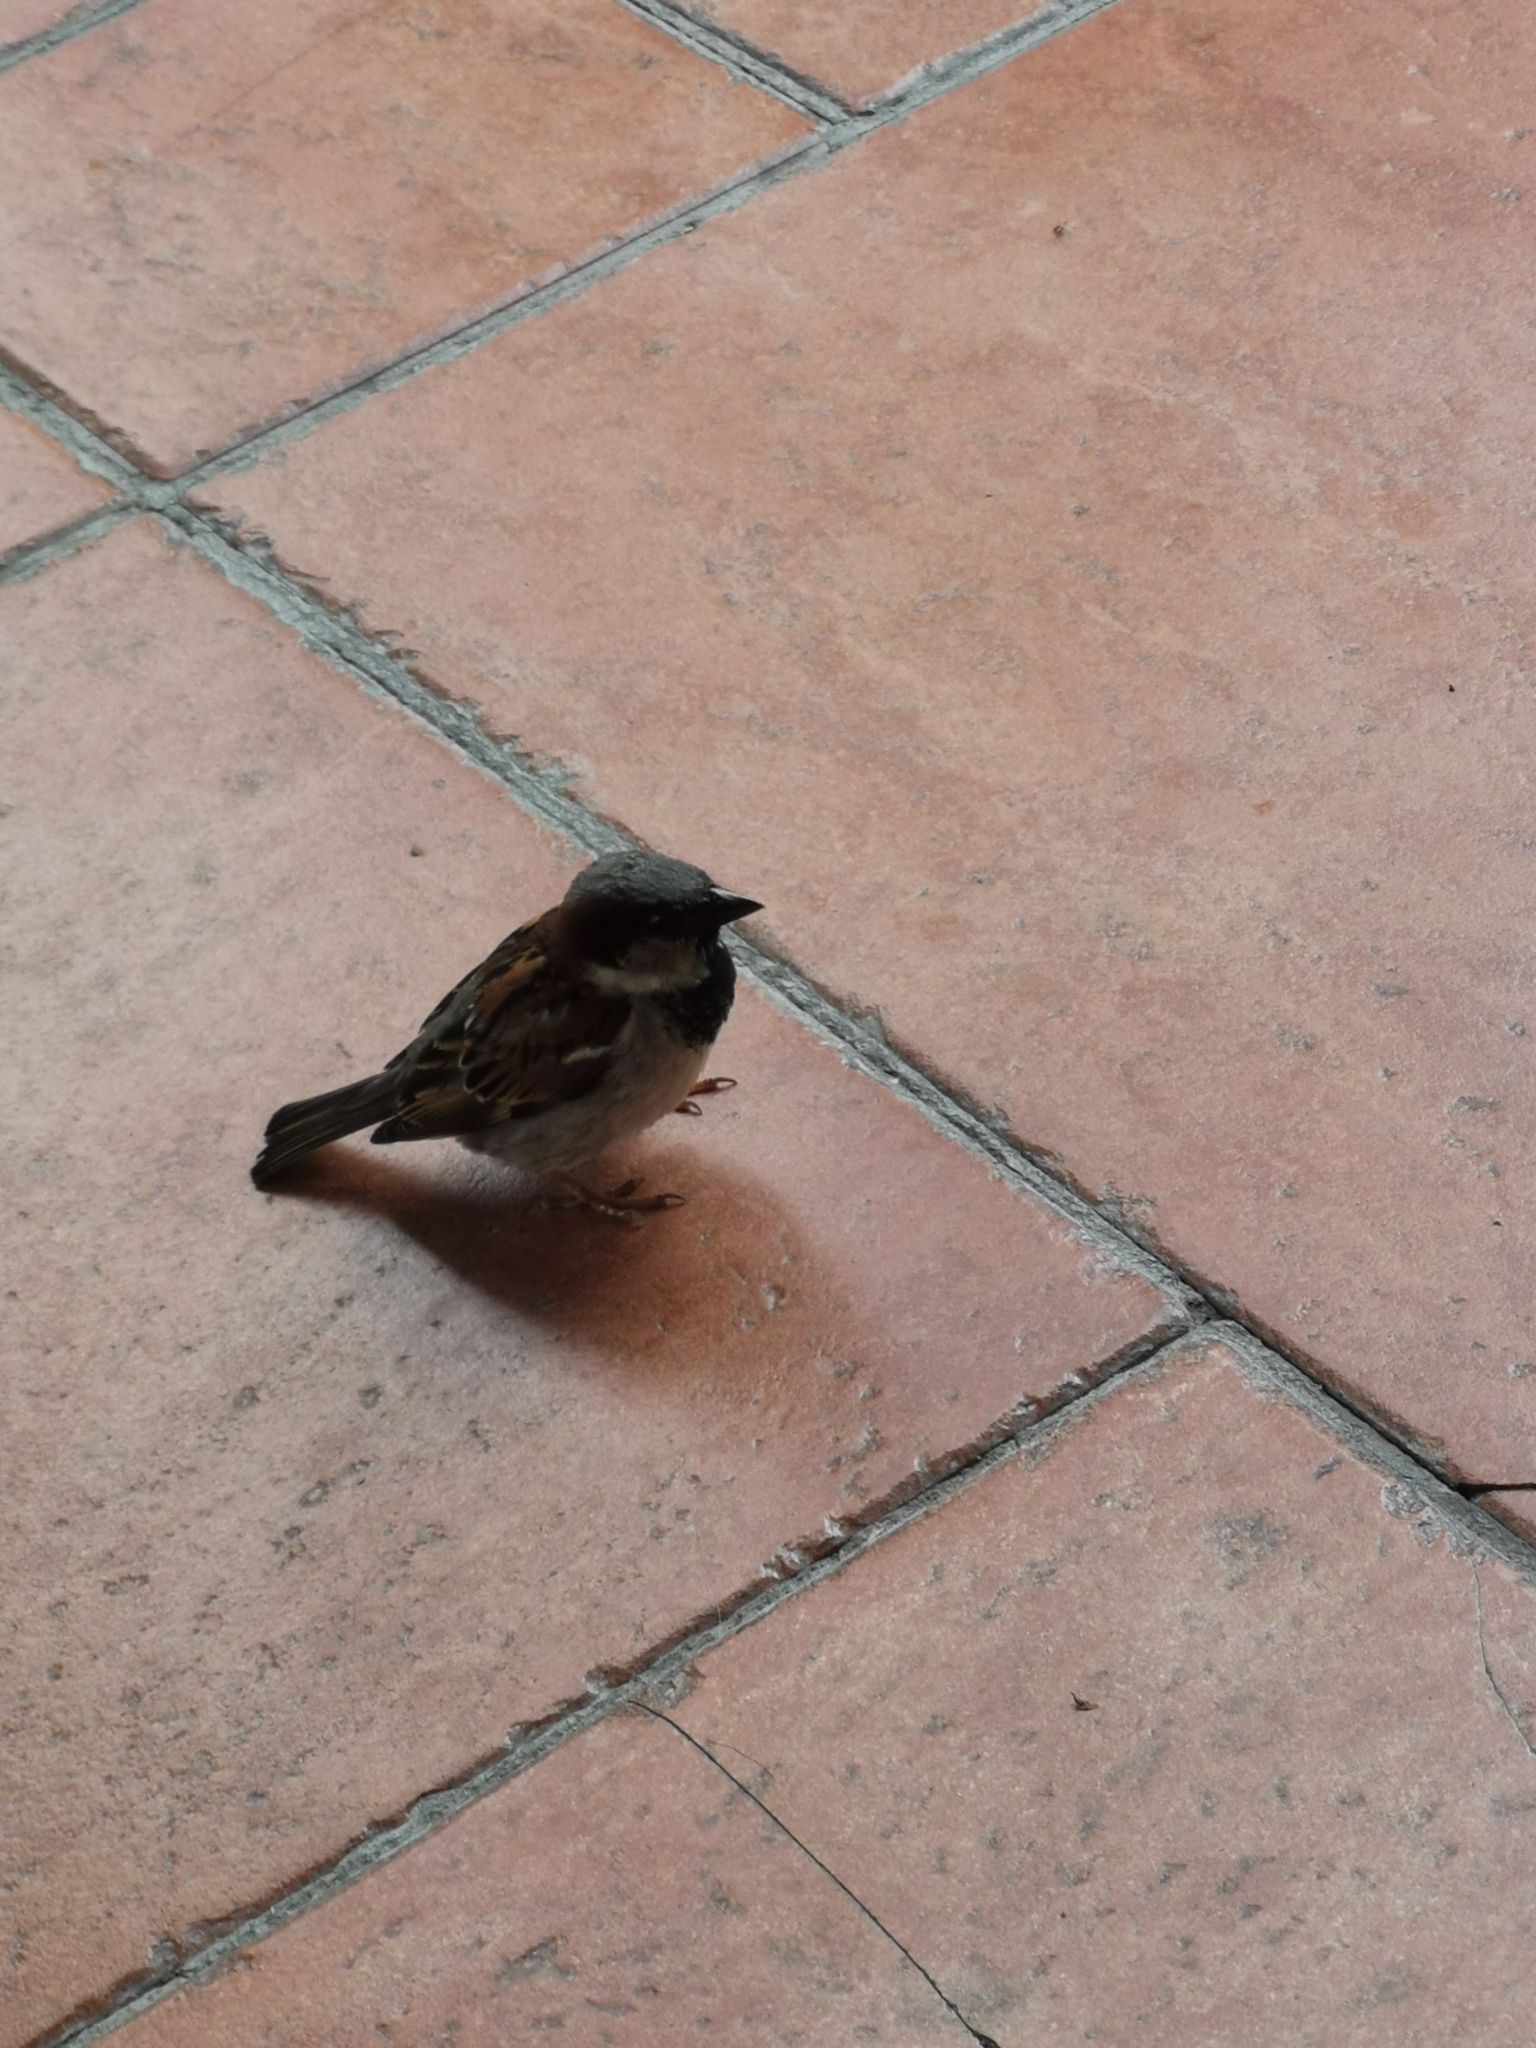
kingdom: Animalia
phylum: Chordata
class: Aves
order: Passeriformes
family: Passeridae
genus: Passer
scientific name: Passer domesticus
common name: House sparrow
